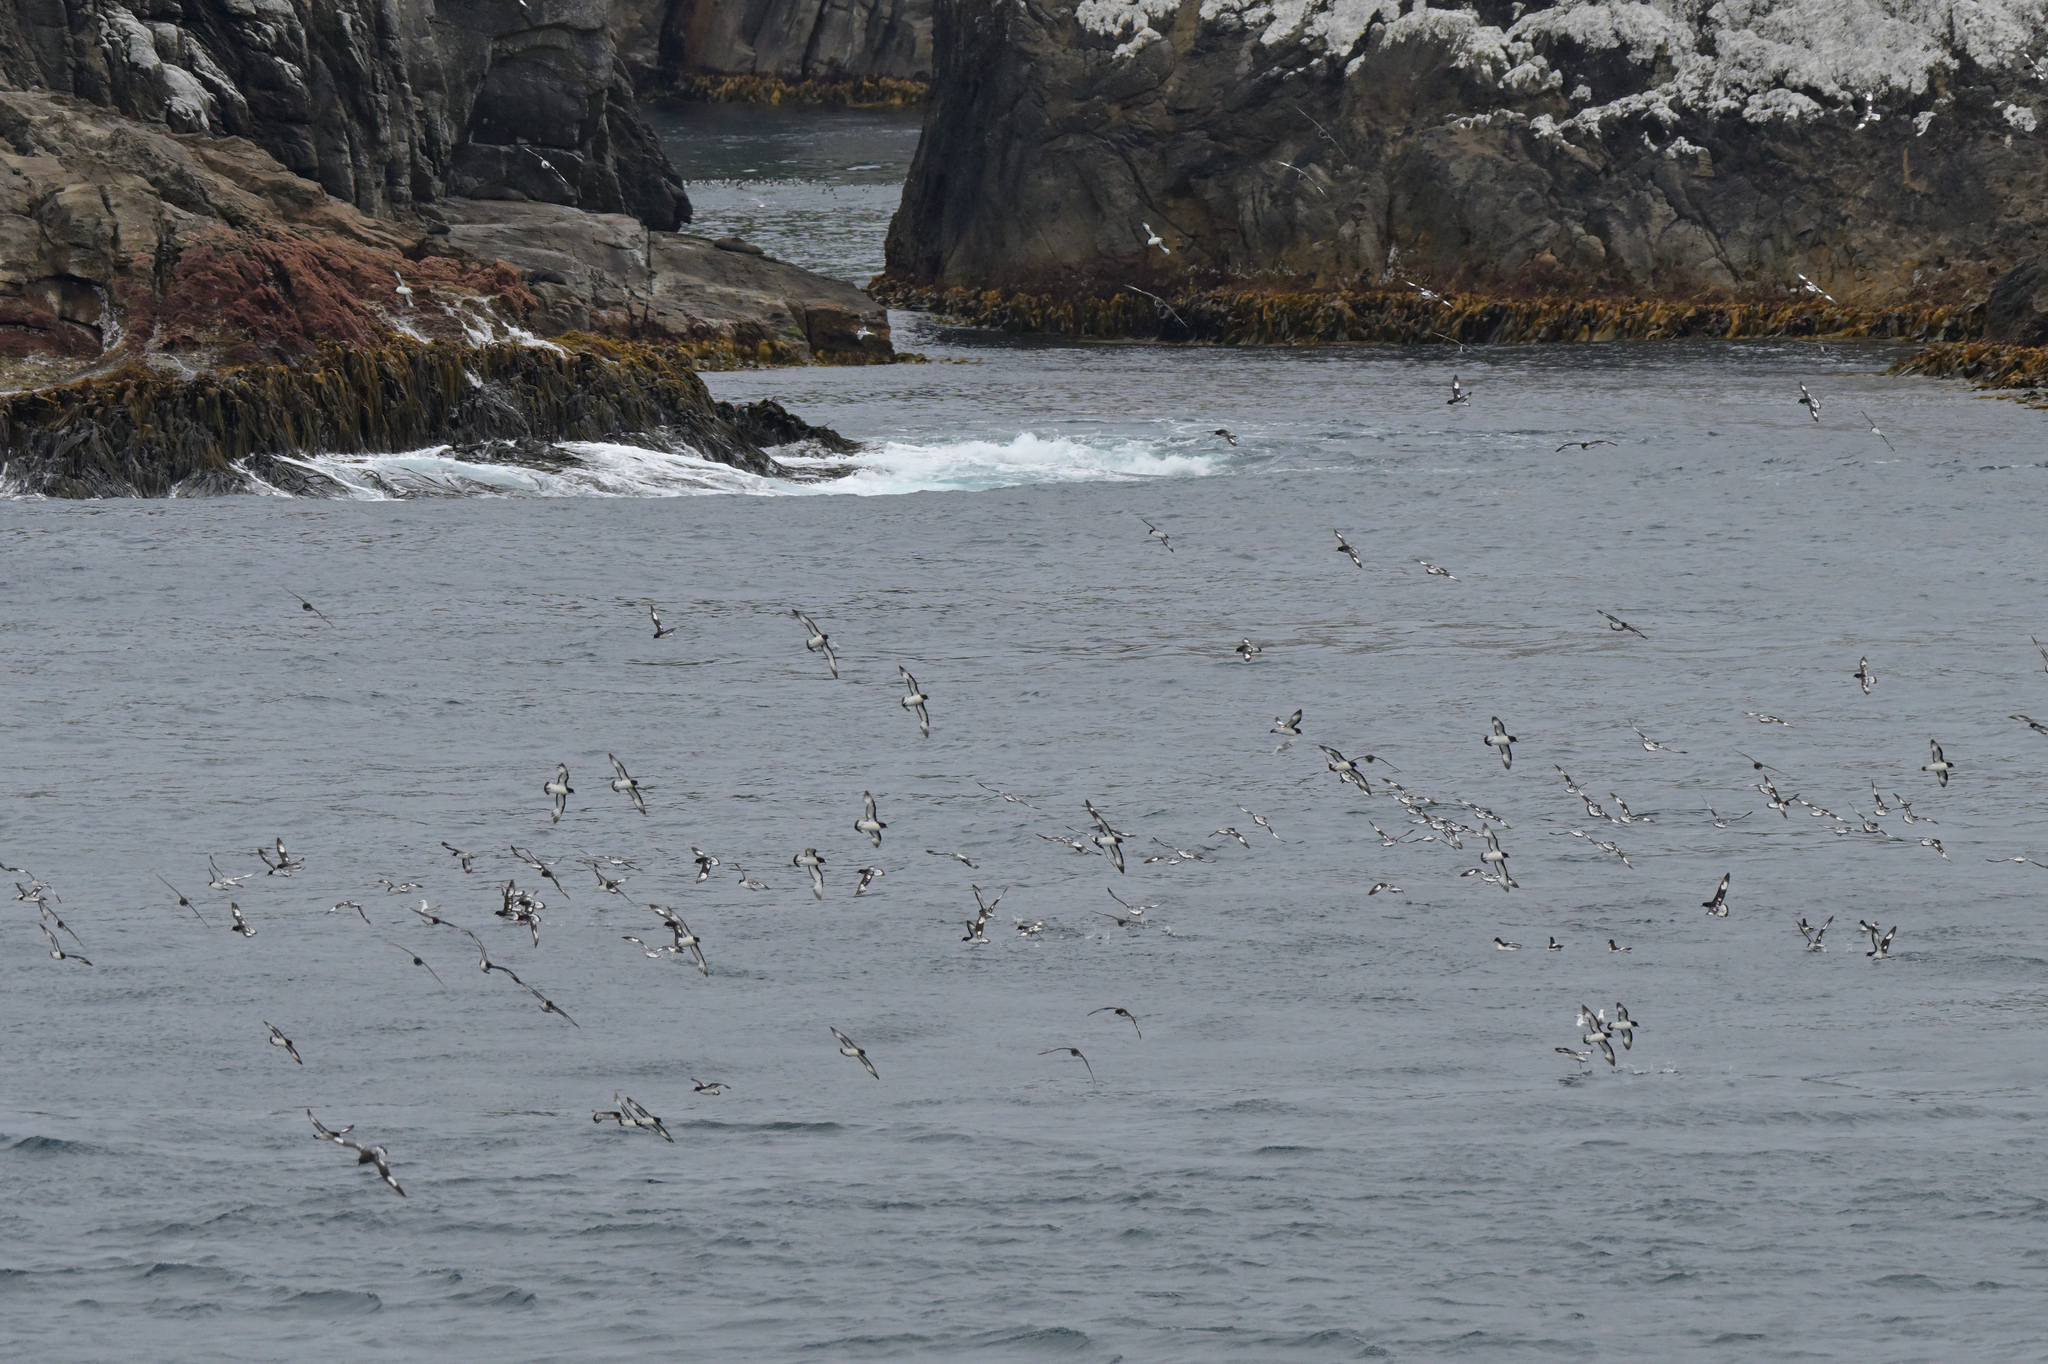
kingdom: Animalia
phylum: Chordata
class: Aves
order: Procellariiformes
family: Procellariidae
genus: Daption
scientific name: Daption capense
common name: Cape petrel
